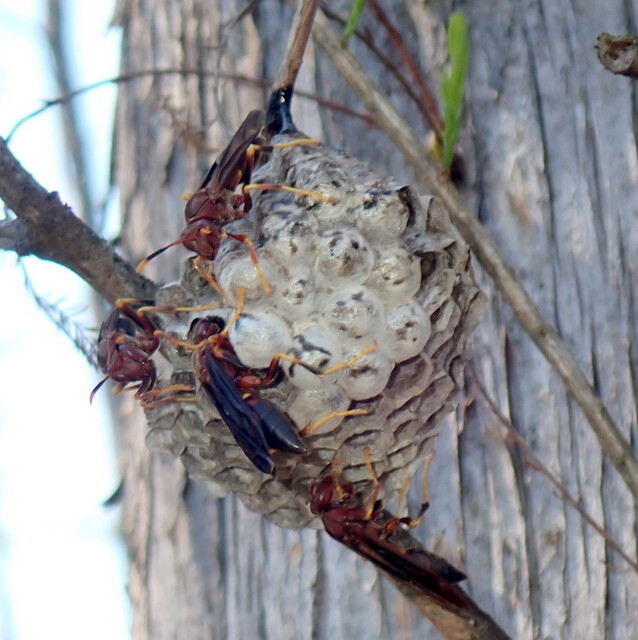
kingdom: Animalia
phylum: Arthropoda
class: Insecta
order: Hymenoptera
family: Eumenidae
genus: Polistes
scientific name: Polistes annularis
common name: Ringed paper wasp
